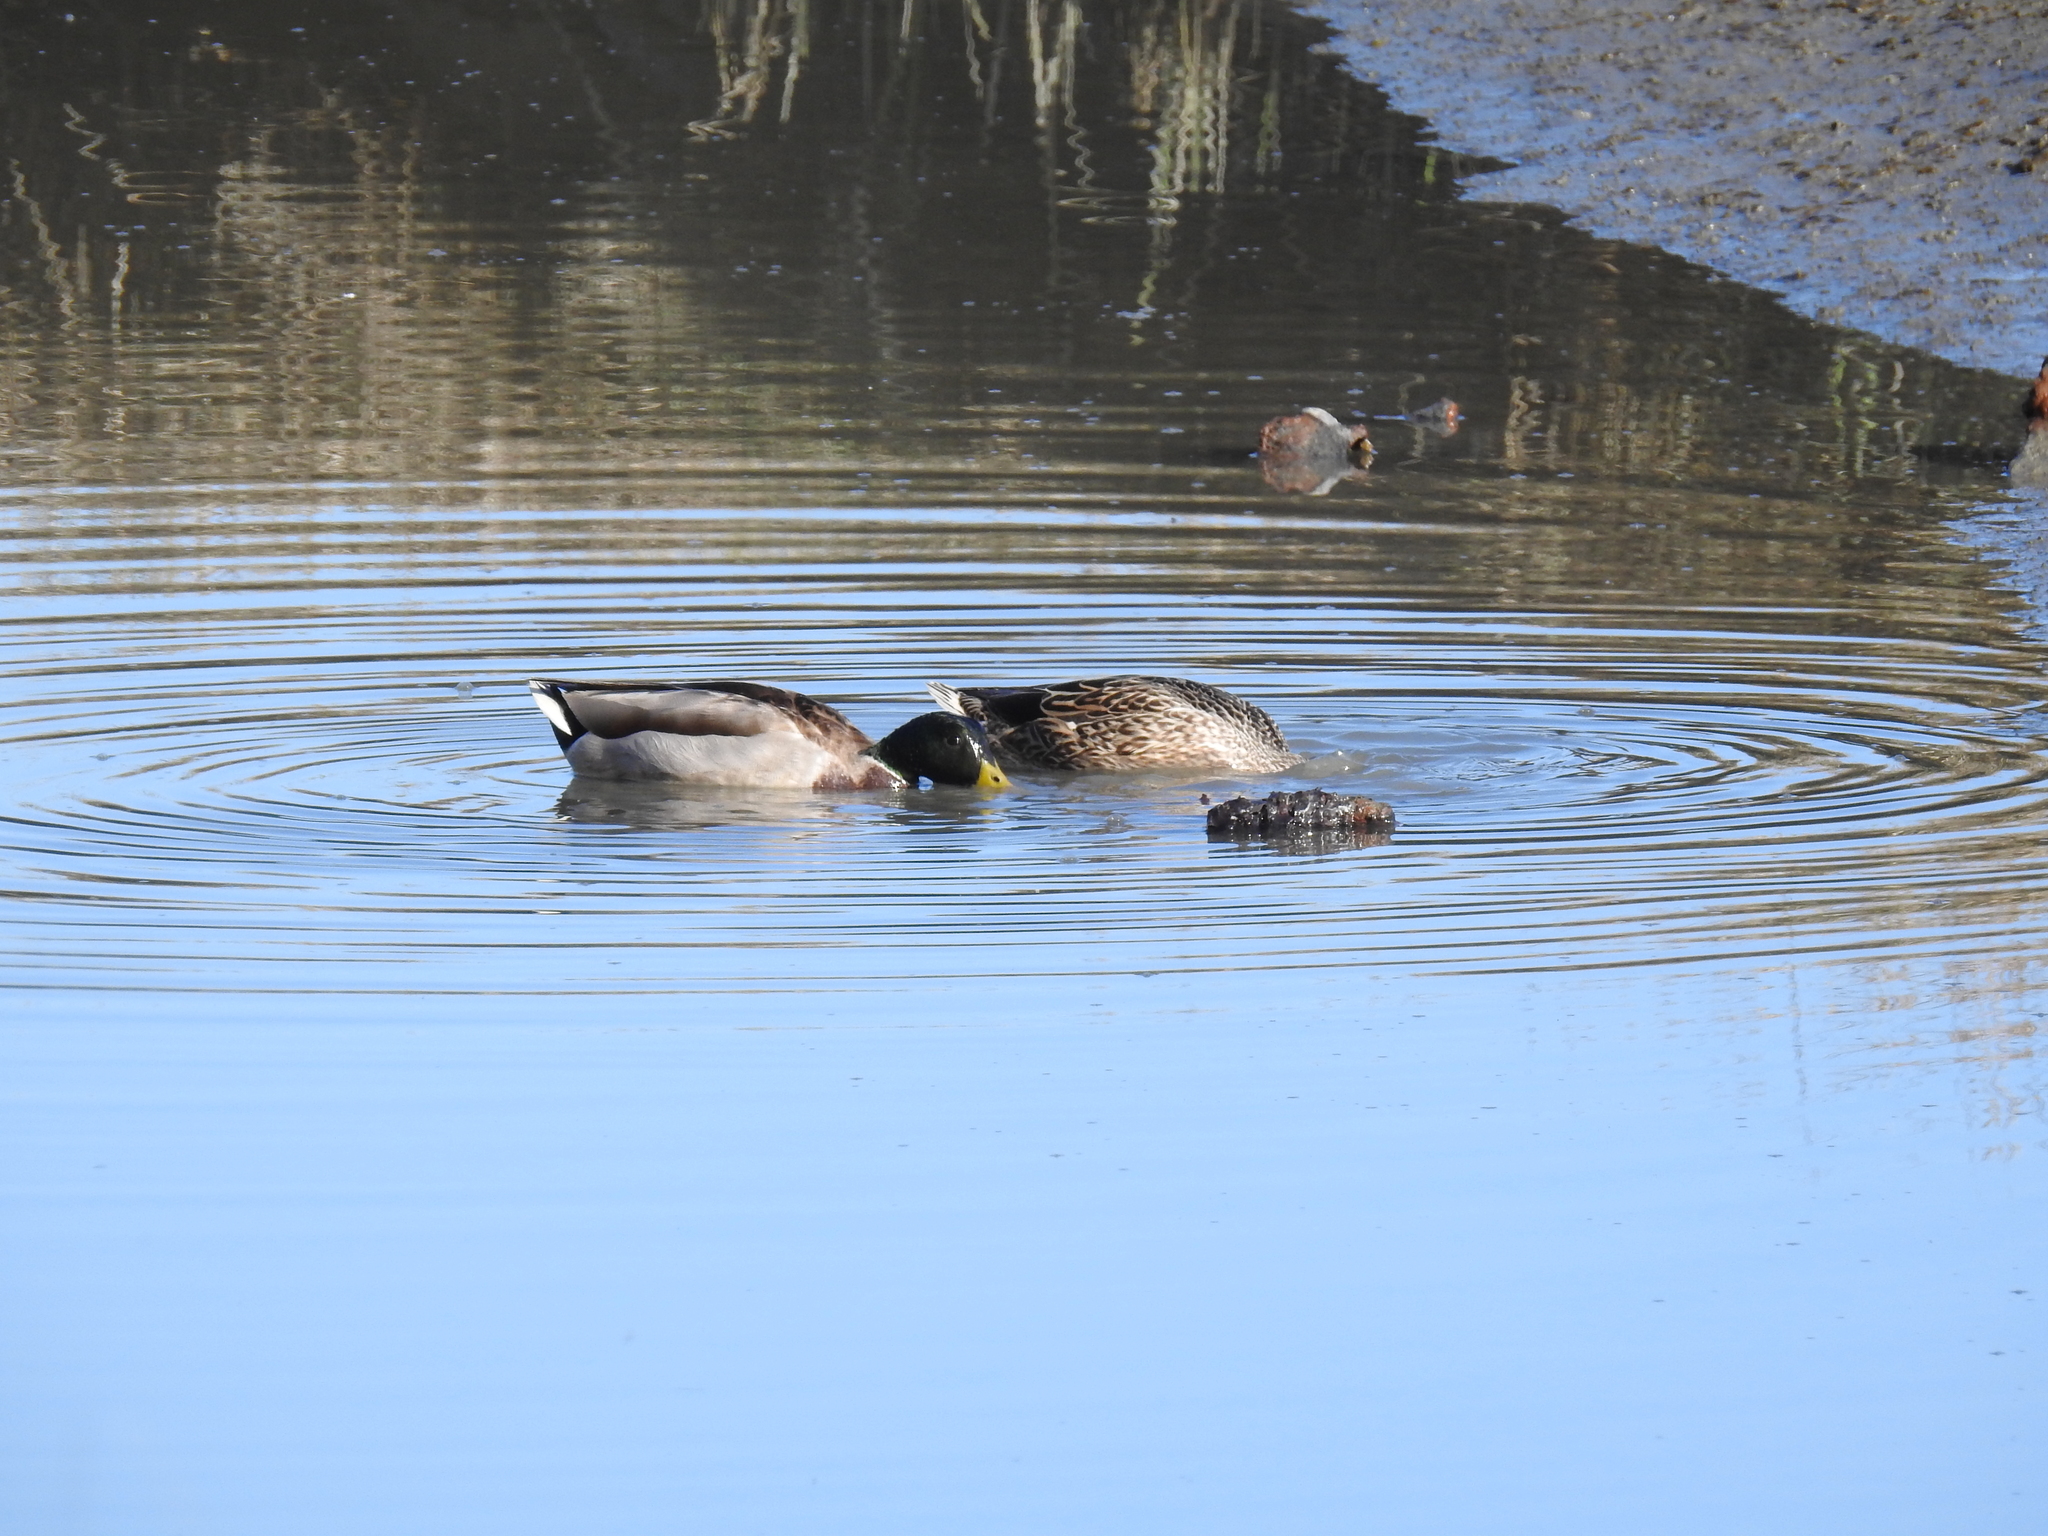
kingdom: Animalia
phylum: Chordata
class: Aves
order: Anseriformes
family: Anatidae
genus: Anas
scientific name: Anas platyrhynchos
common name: Mallard
